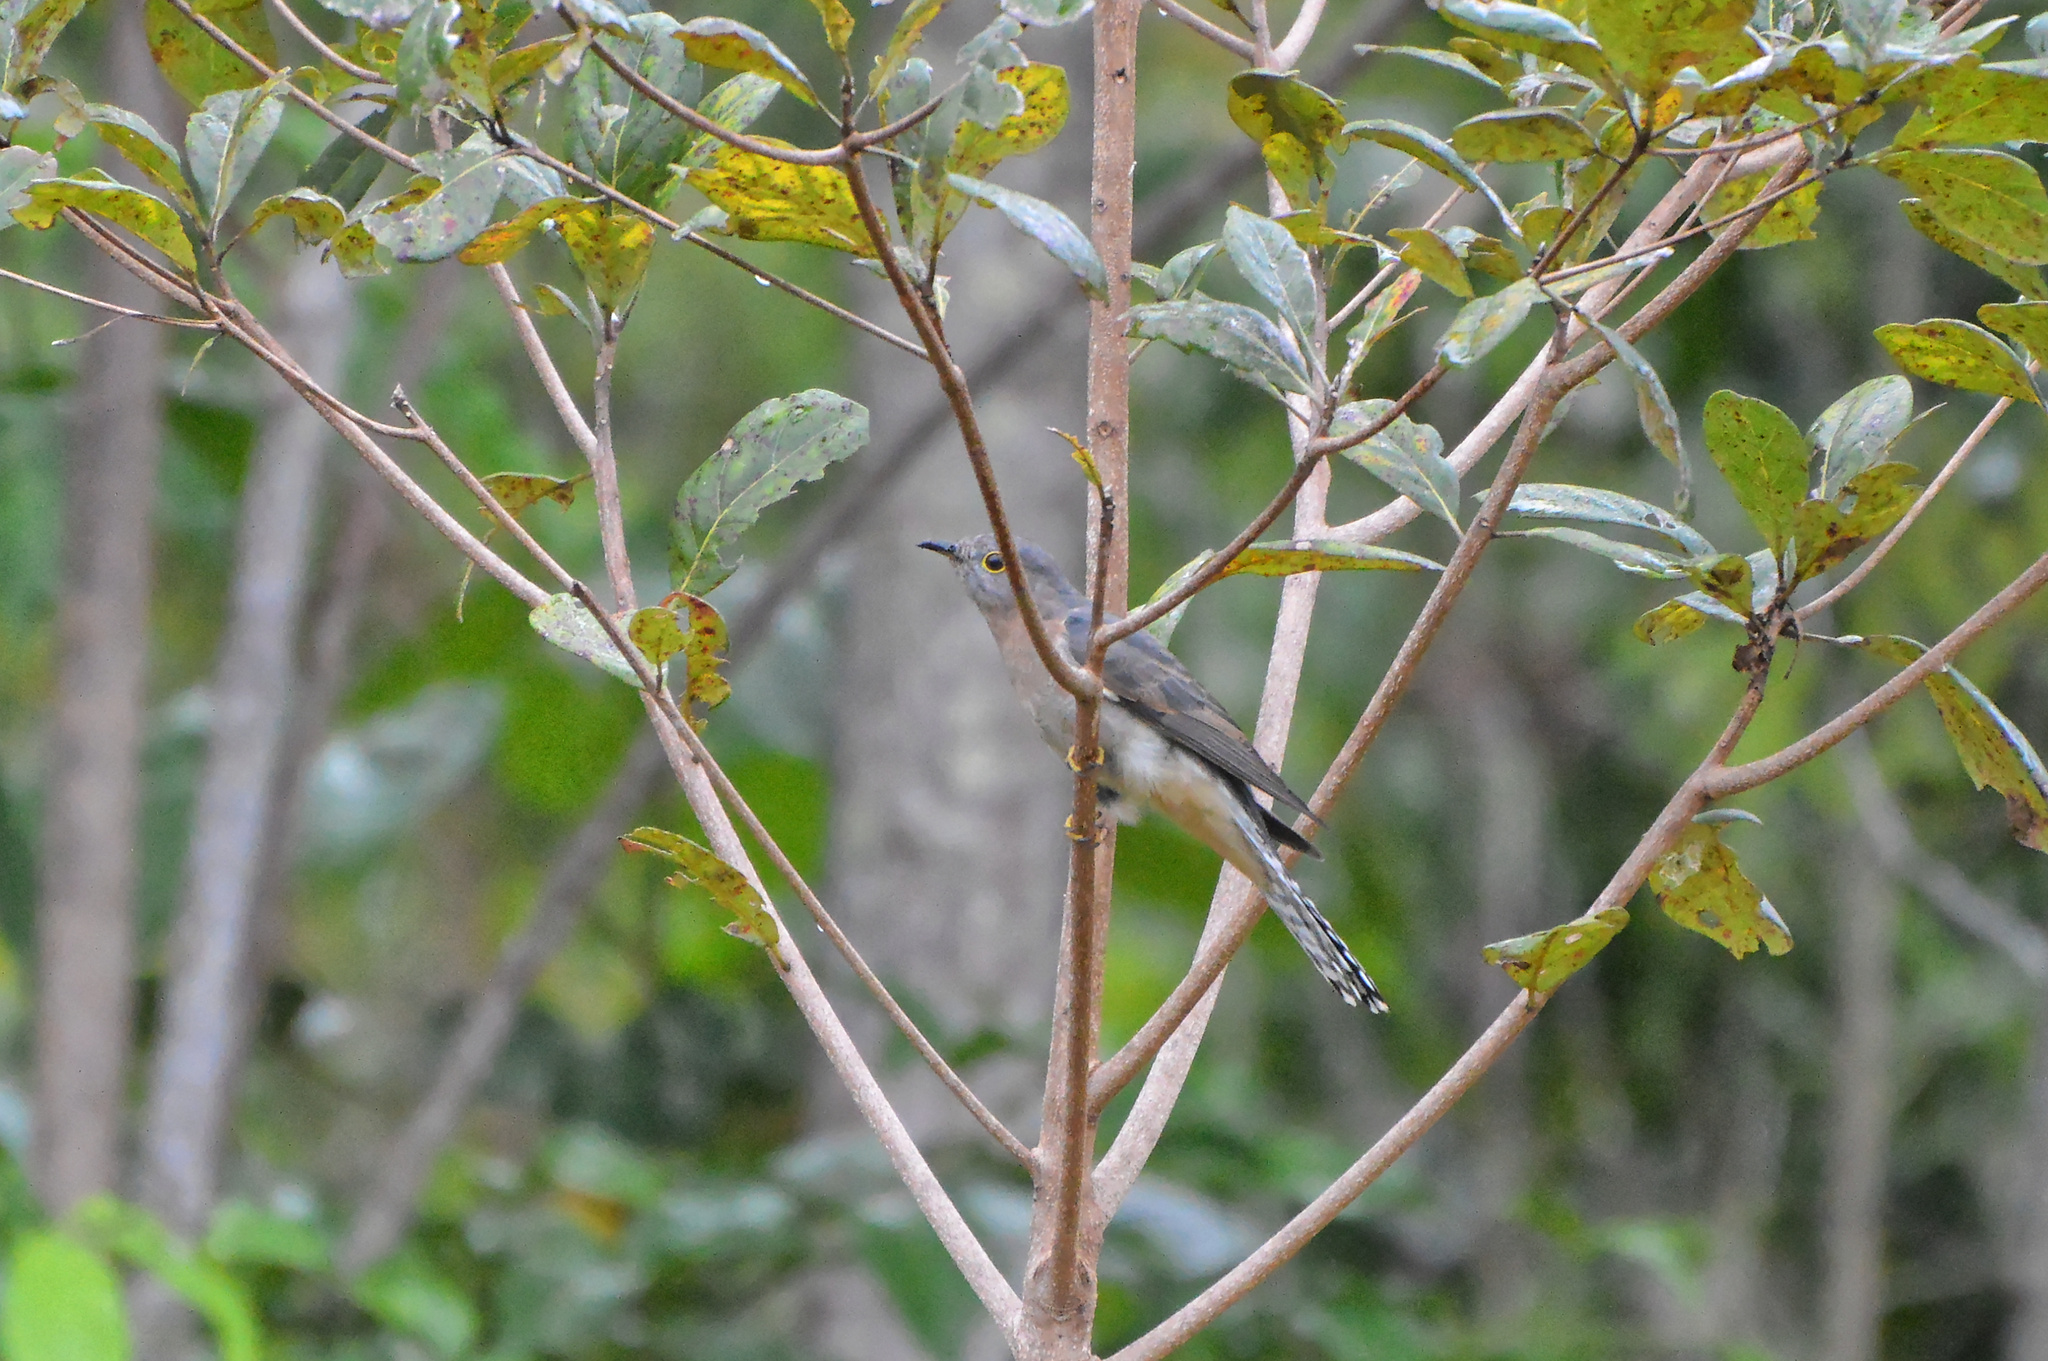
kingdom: Animalia
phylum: Chordata
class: Aves
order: Cuculiformes
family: Cuculidae
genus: Cacomantis
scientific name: Cacomantis flabelliformis
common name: Fan-tailed cuckoo
